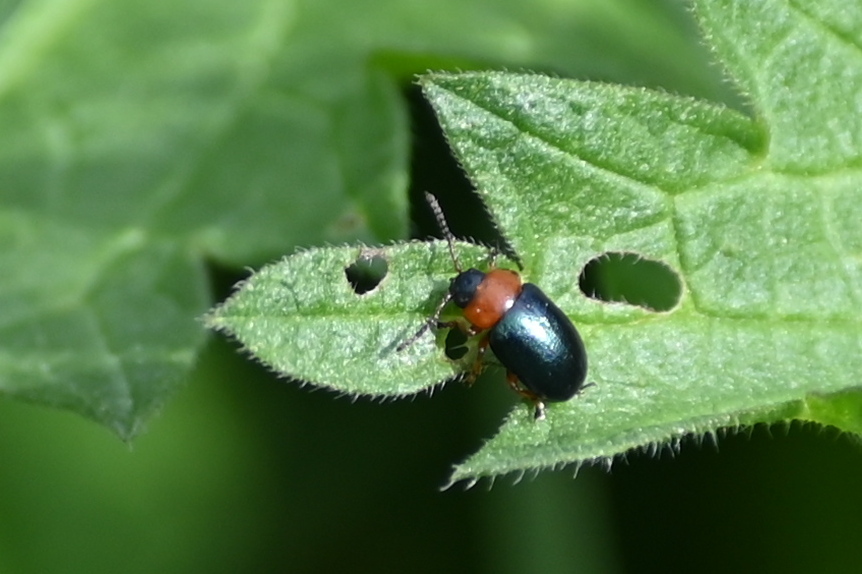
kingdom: Animalia
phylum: Arthropoda
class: Insecta
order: Coleoptera
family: Chrysomelidae
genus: Gastrophysa
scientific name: Gastrophysa polygoni
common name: Knotweed leaf beetle
